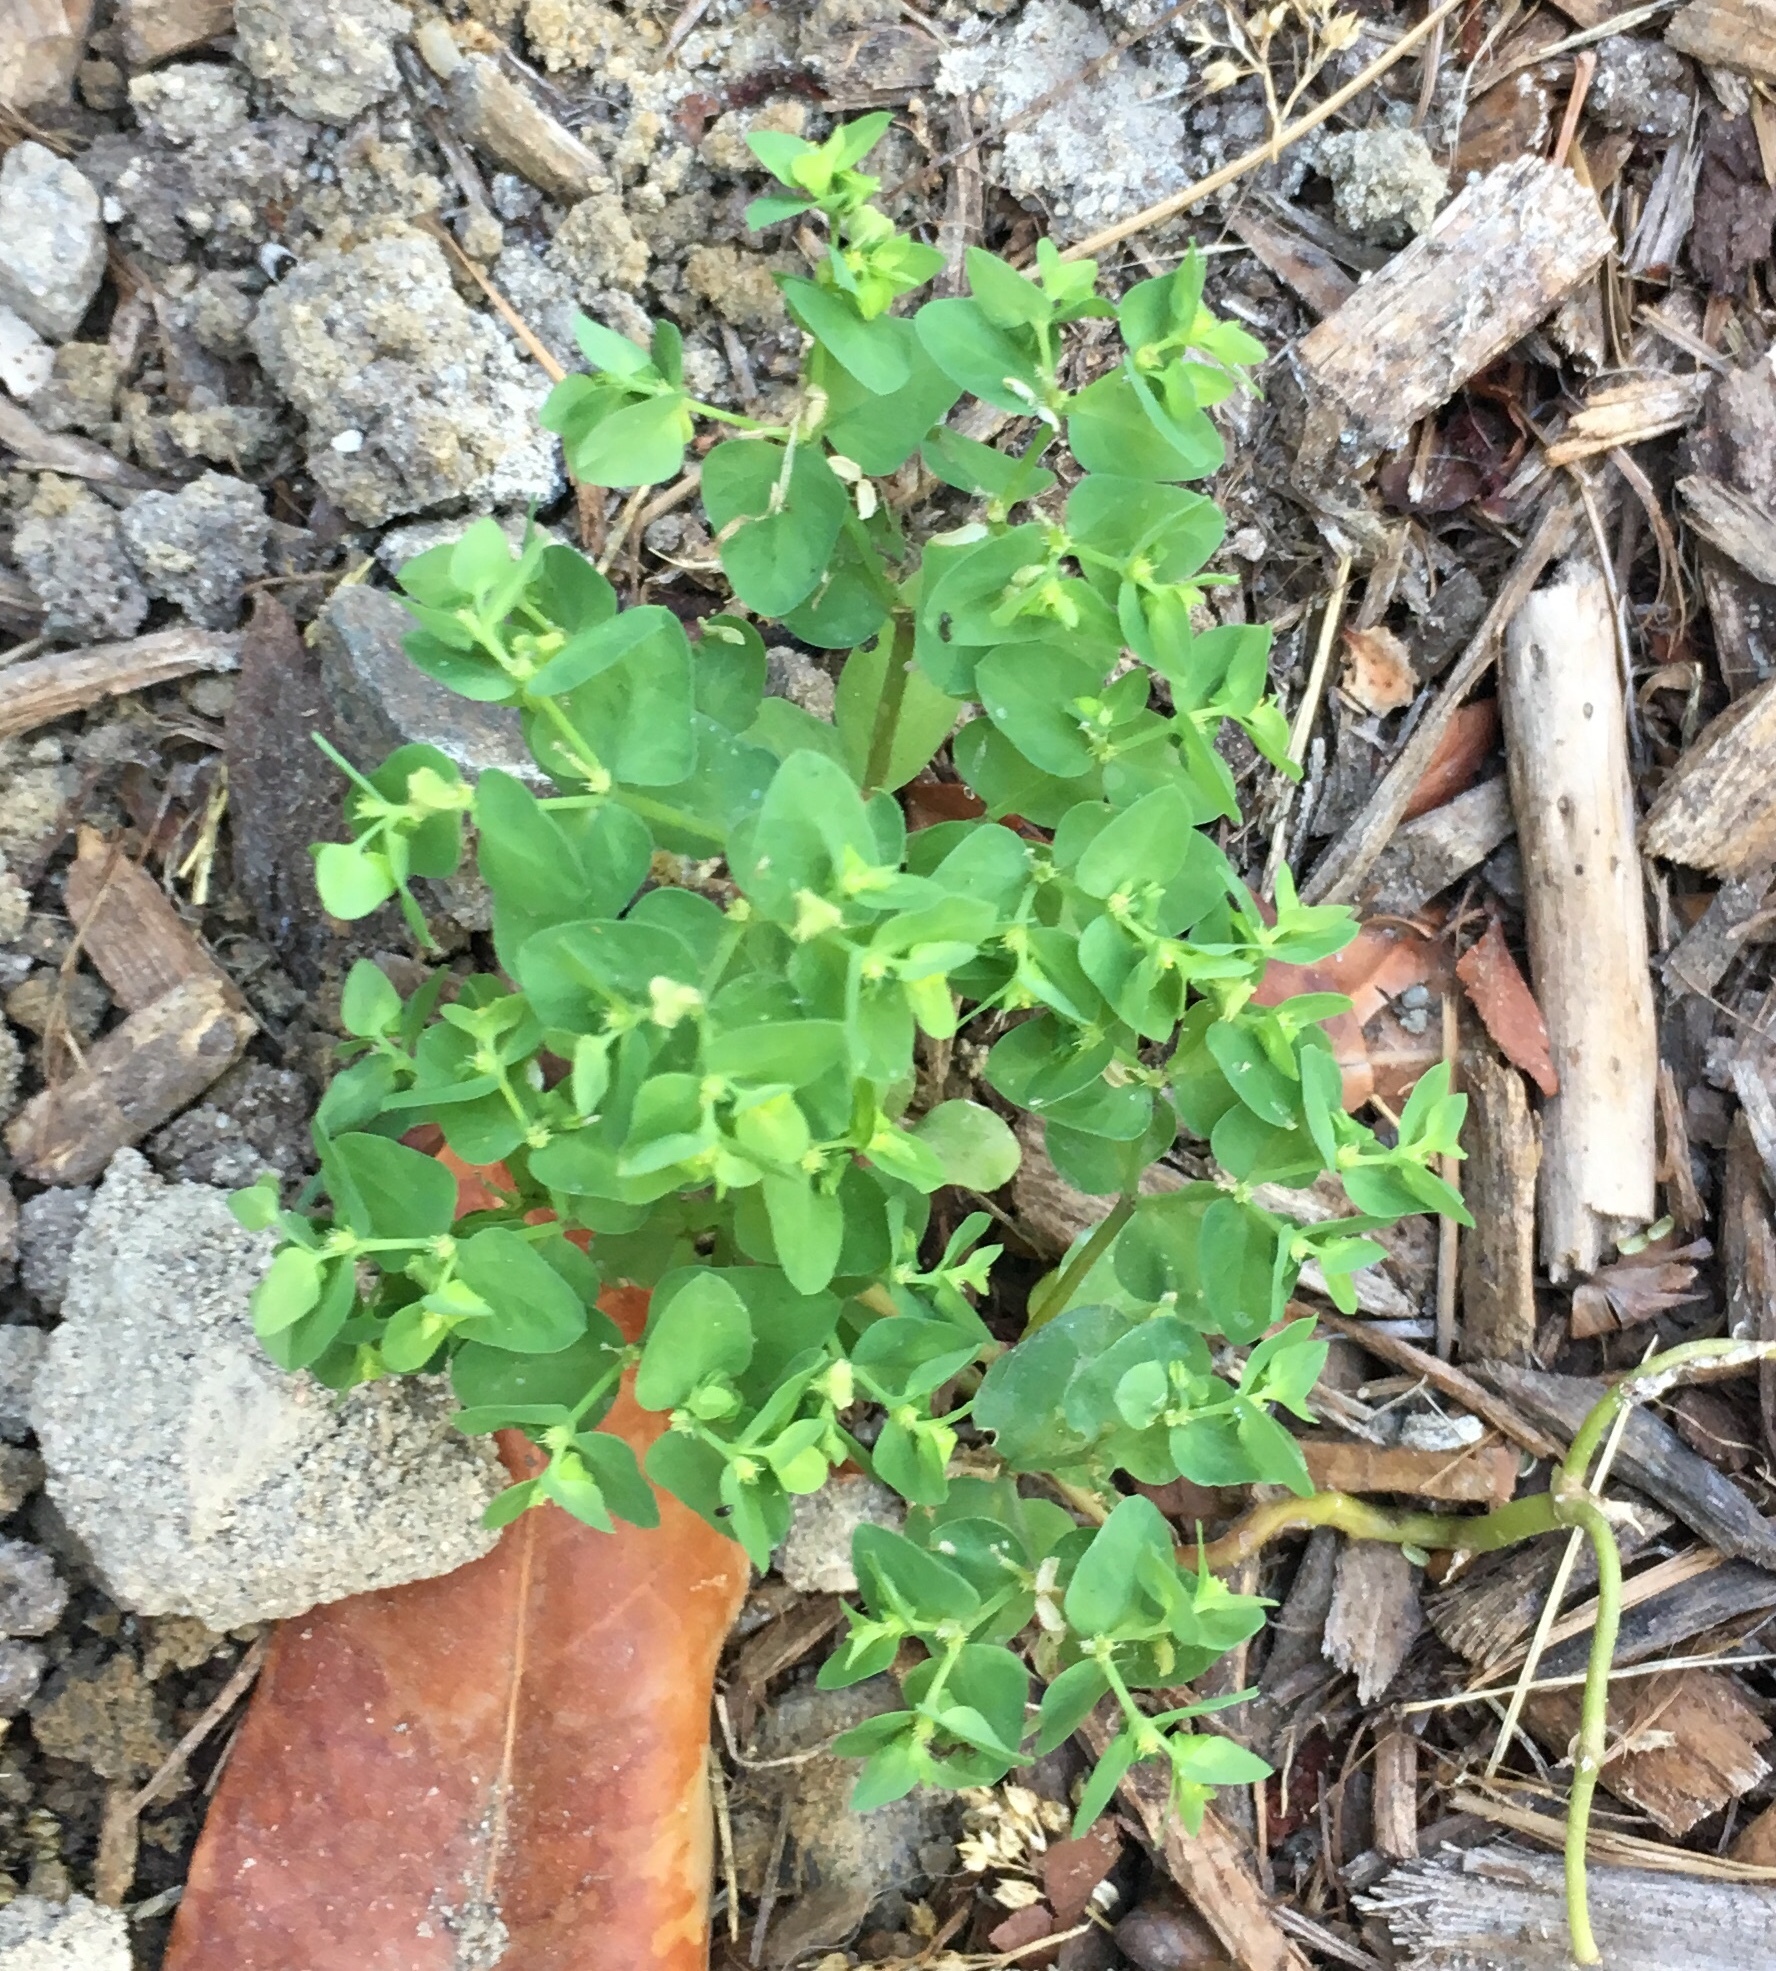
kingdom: Plantae
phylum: Tracheophyta
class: Magnoliopsida
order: Malpighiales
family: Euphorbiaceae
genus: Euphorbia
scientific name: Euphorbia peplus
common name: Petty spurge
